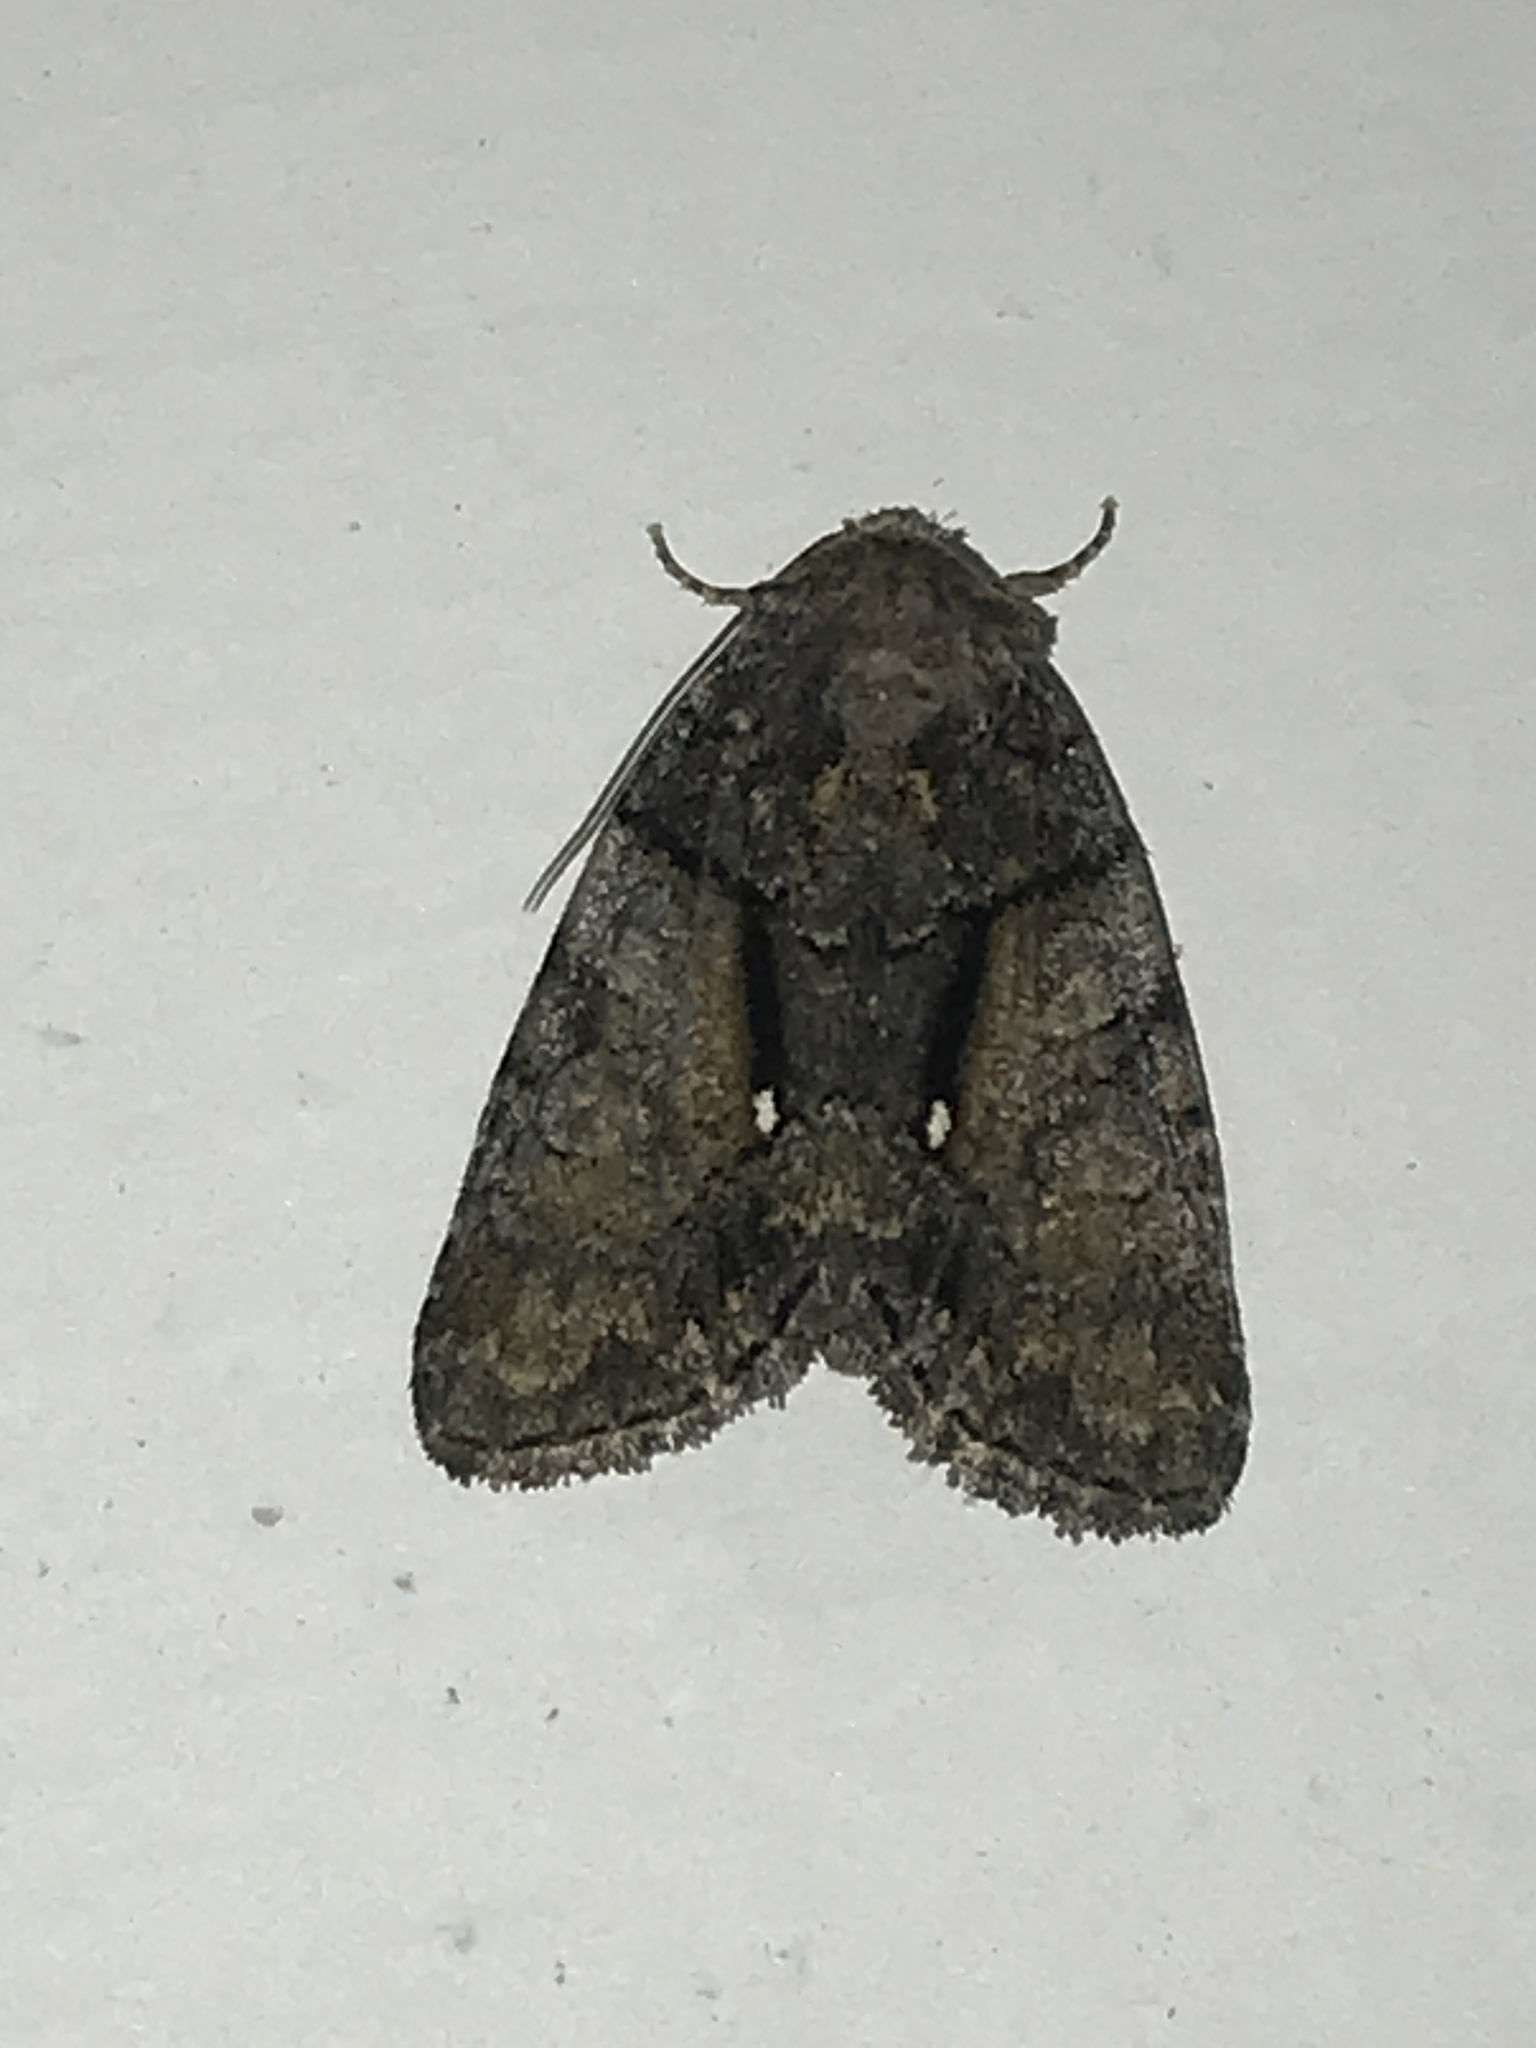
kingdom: Animalia
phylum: Arthropoda
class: Insecta
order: Lepidoptera
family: Noctuidae
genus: Chytonix
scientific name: Chytonix palliatricula
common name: Cloaked marvel
